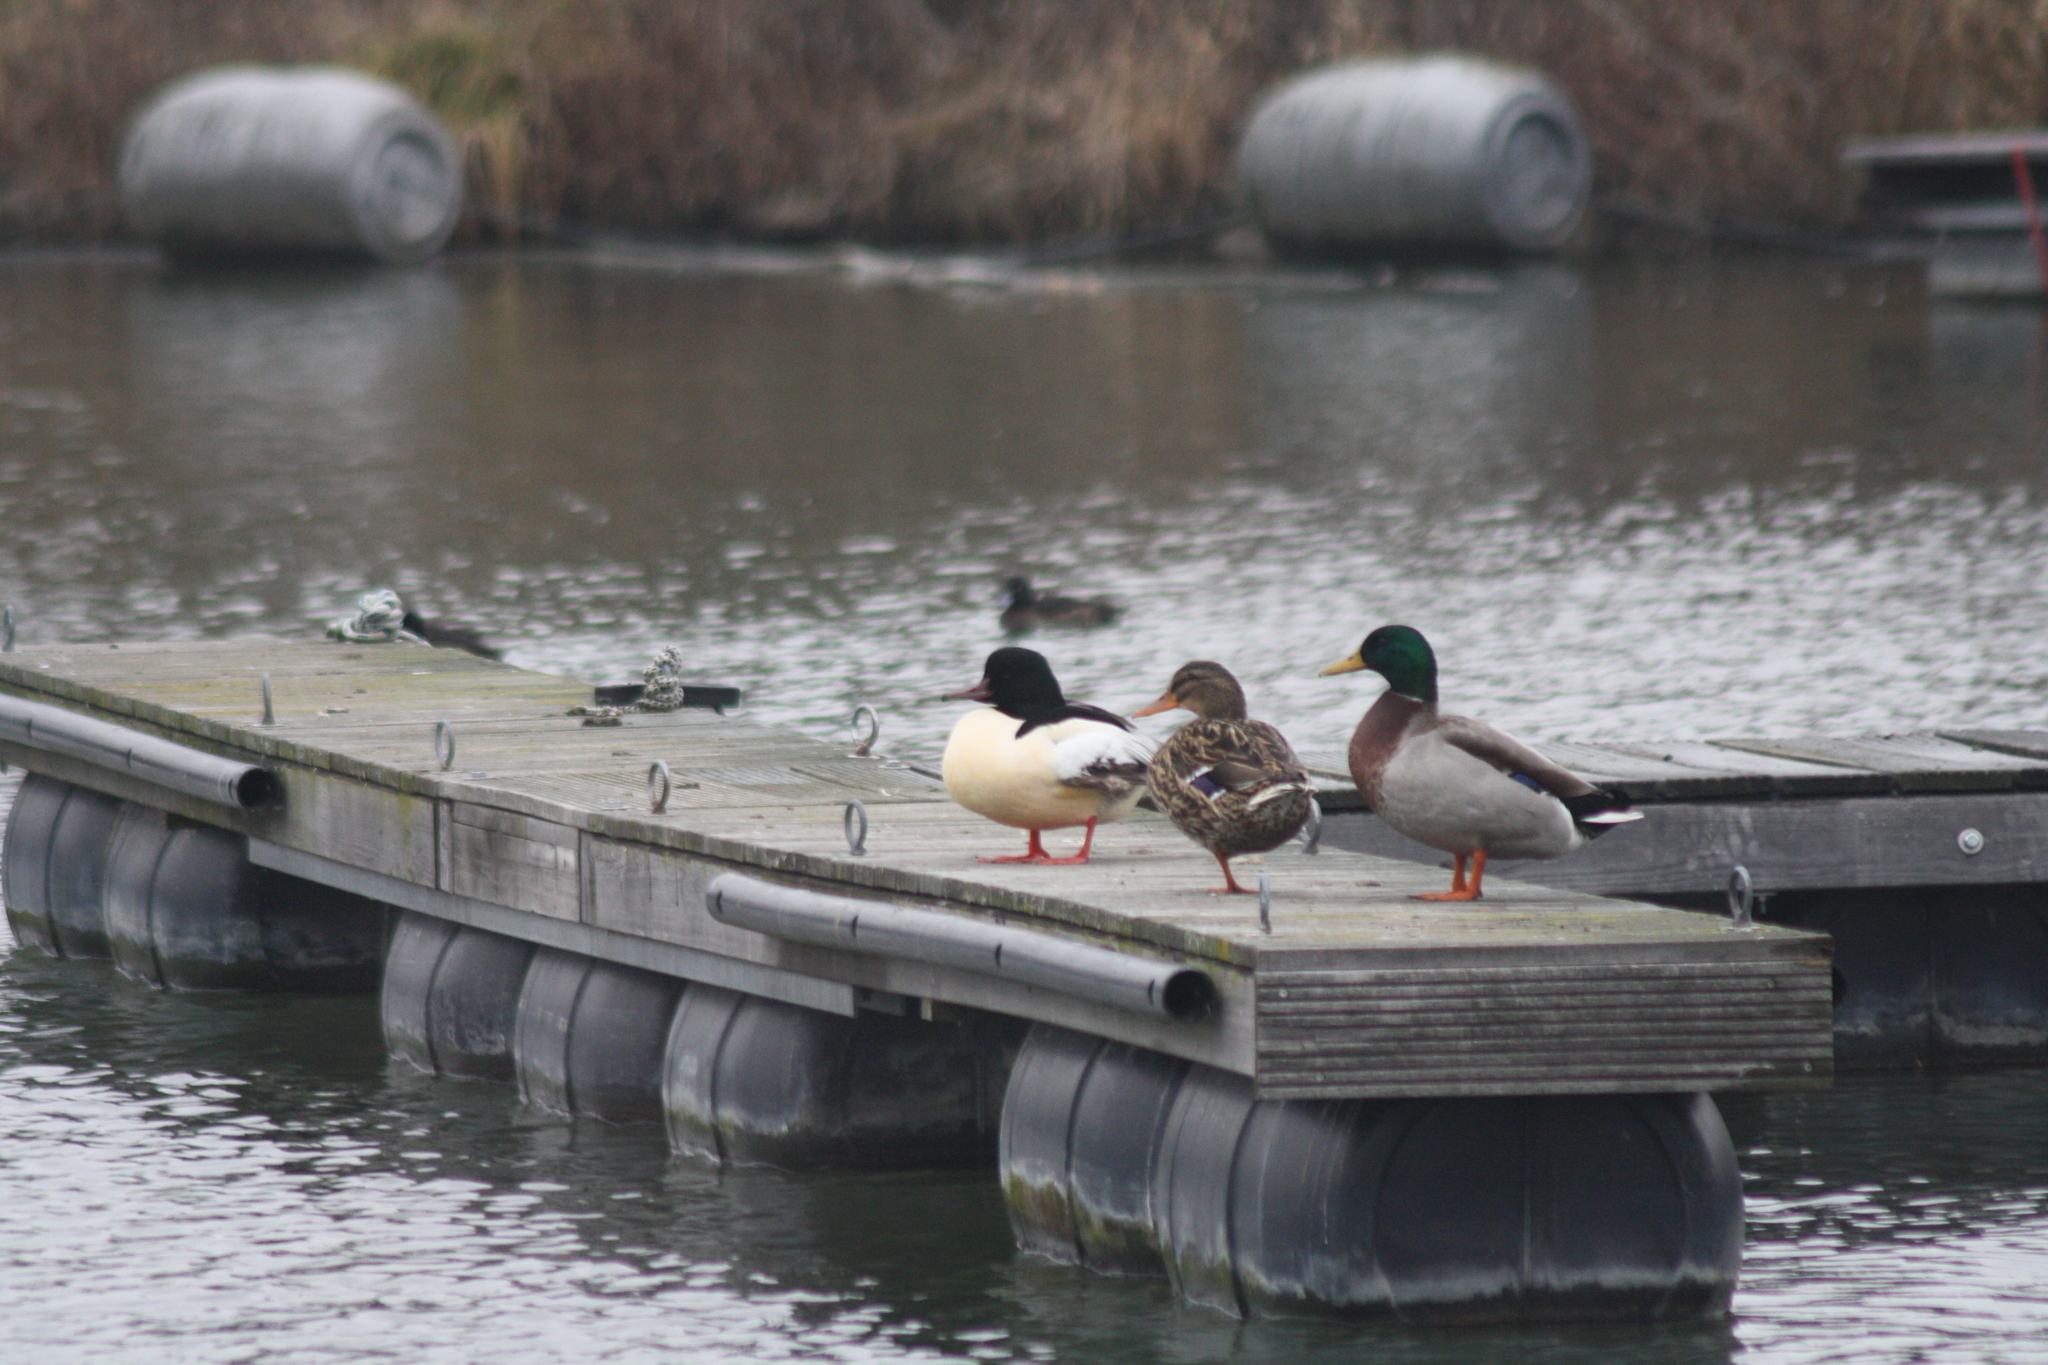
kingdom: Animalia
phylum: Chordata
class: Aves
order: Anseriformes
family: Anatidae
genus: Anas
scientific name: Anas platyrhynchos
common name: Mallard
